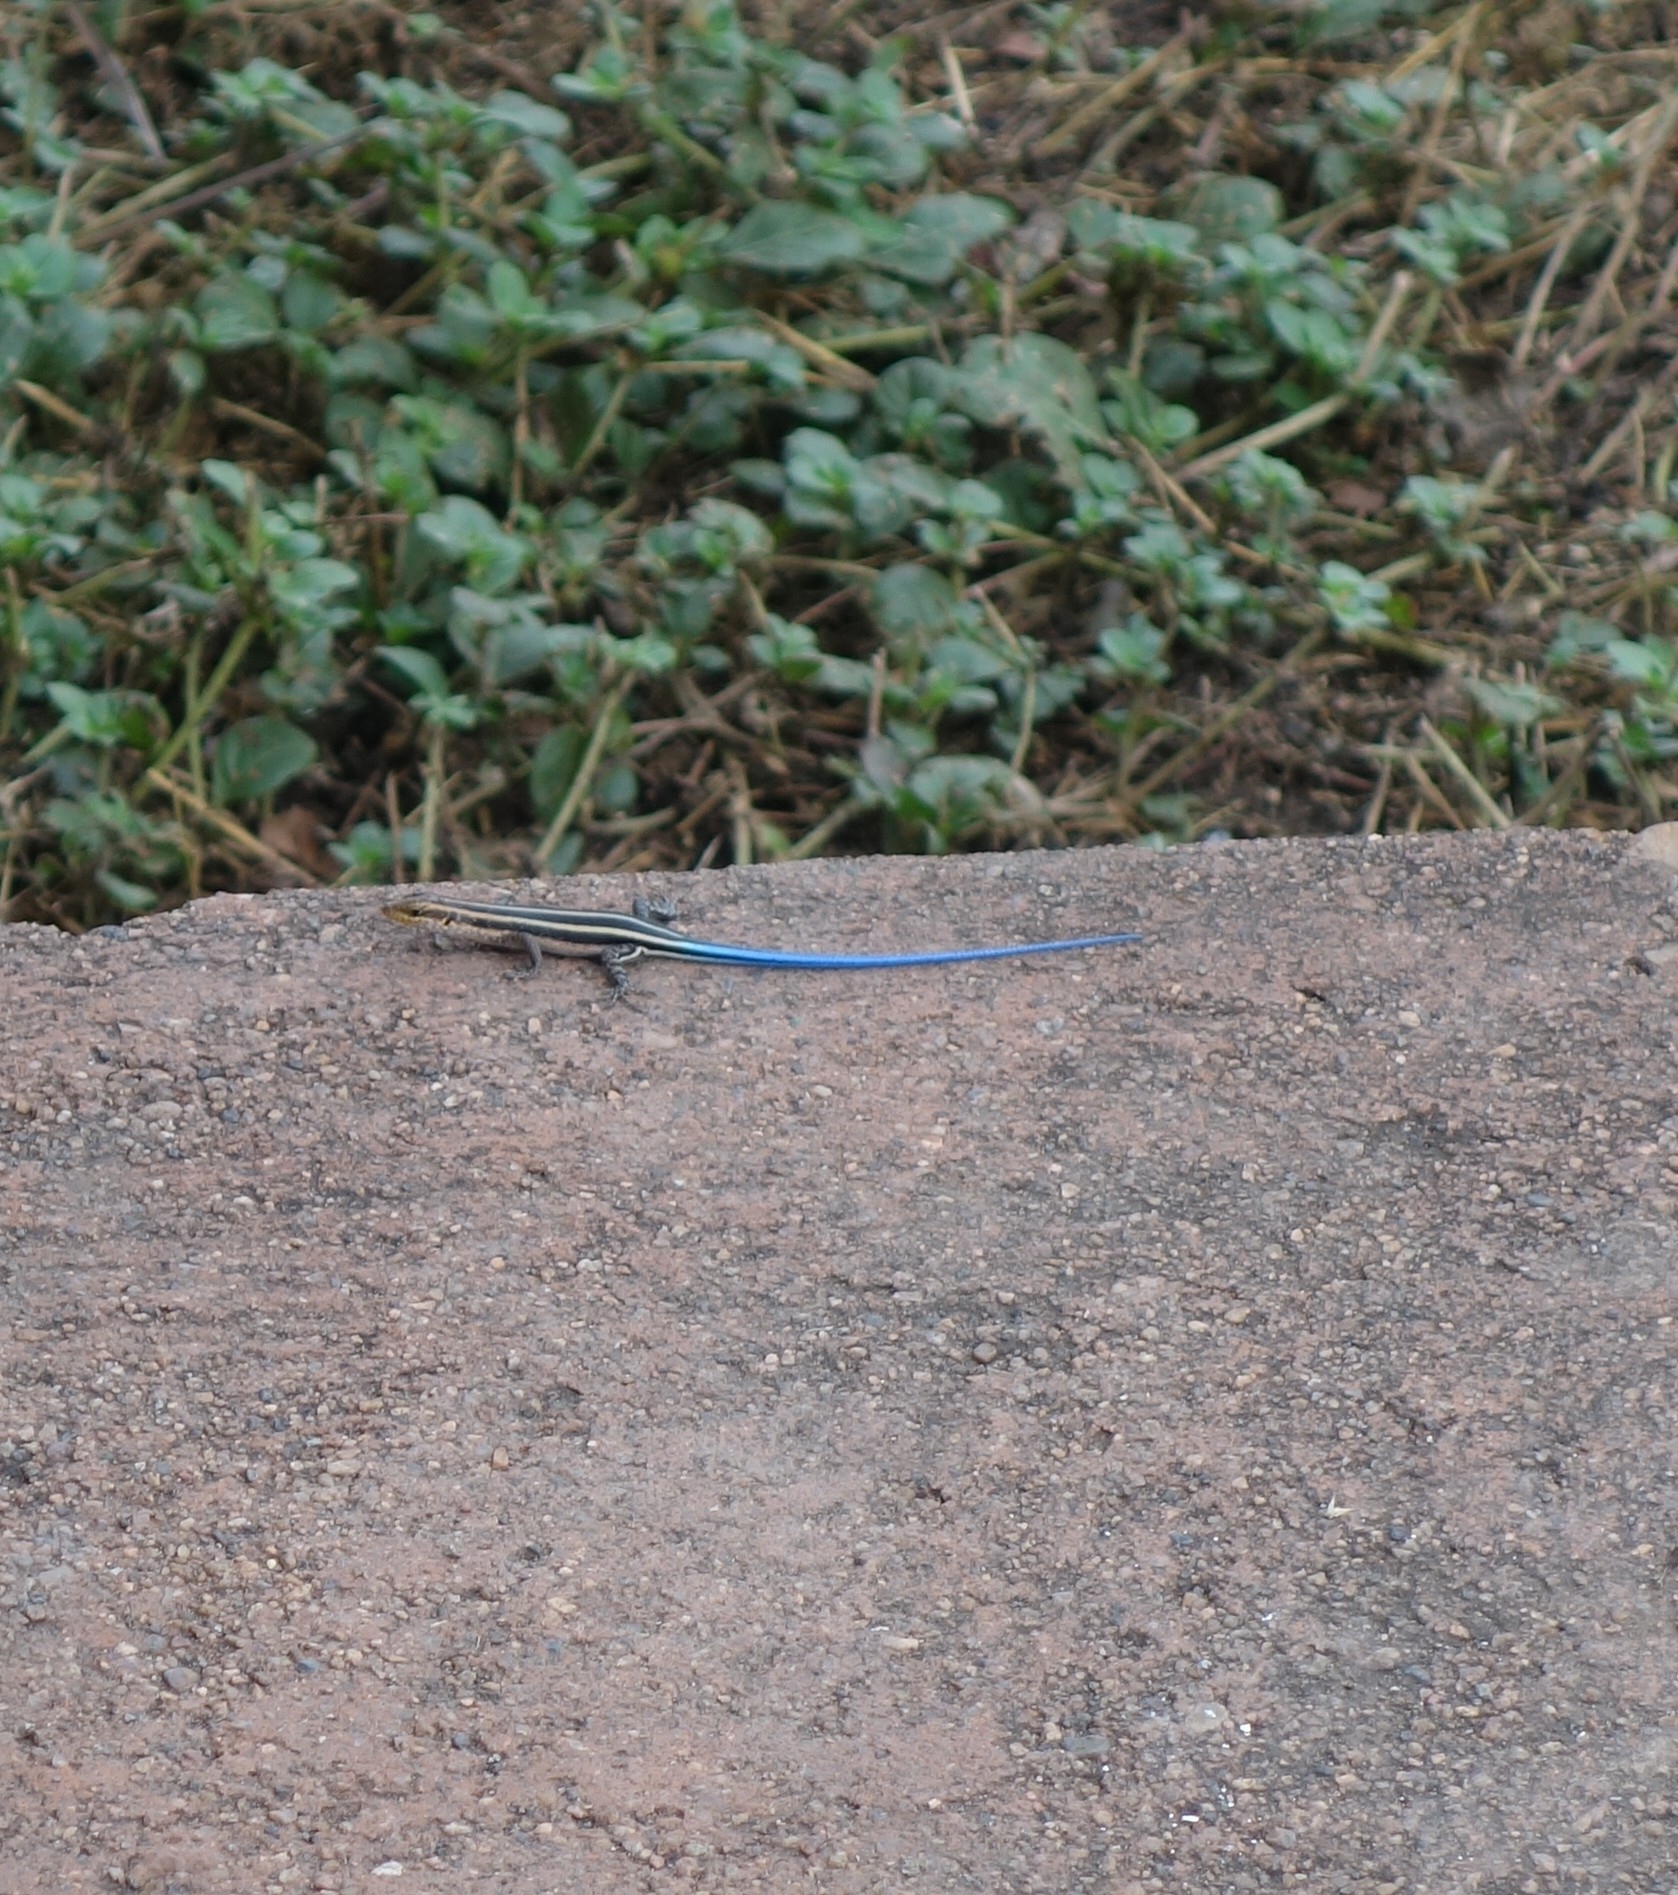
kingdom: Animalia
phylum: Chordata
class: Squamata
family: Scincidae
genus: Trachylepis
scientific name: Trachylepis margaritifera
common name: Rainbow skink
